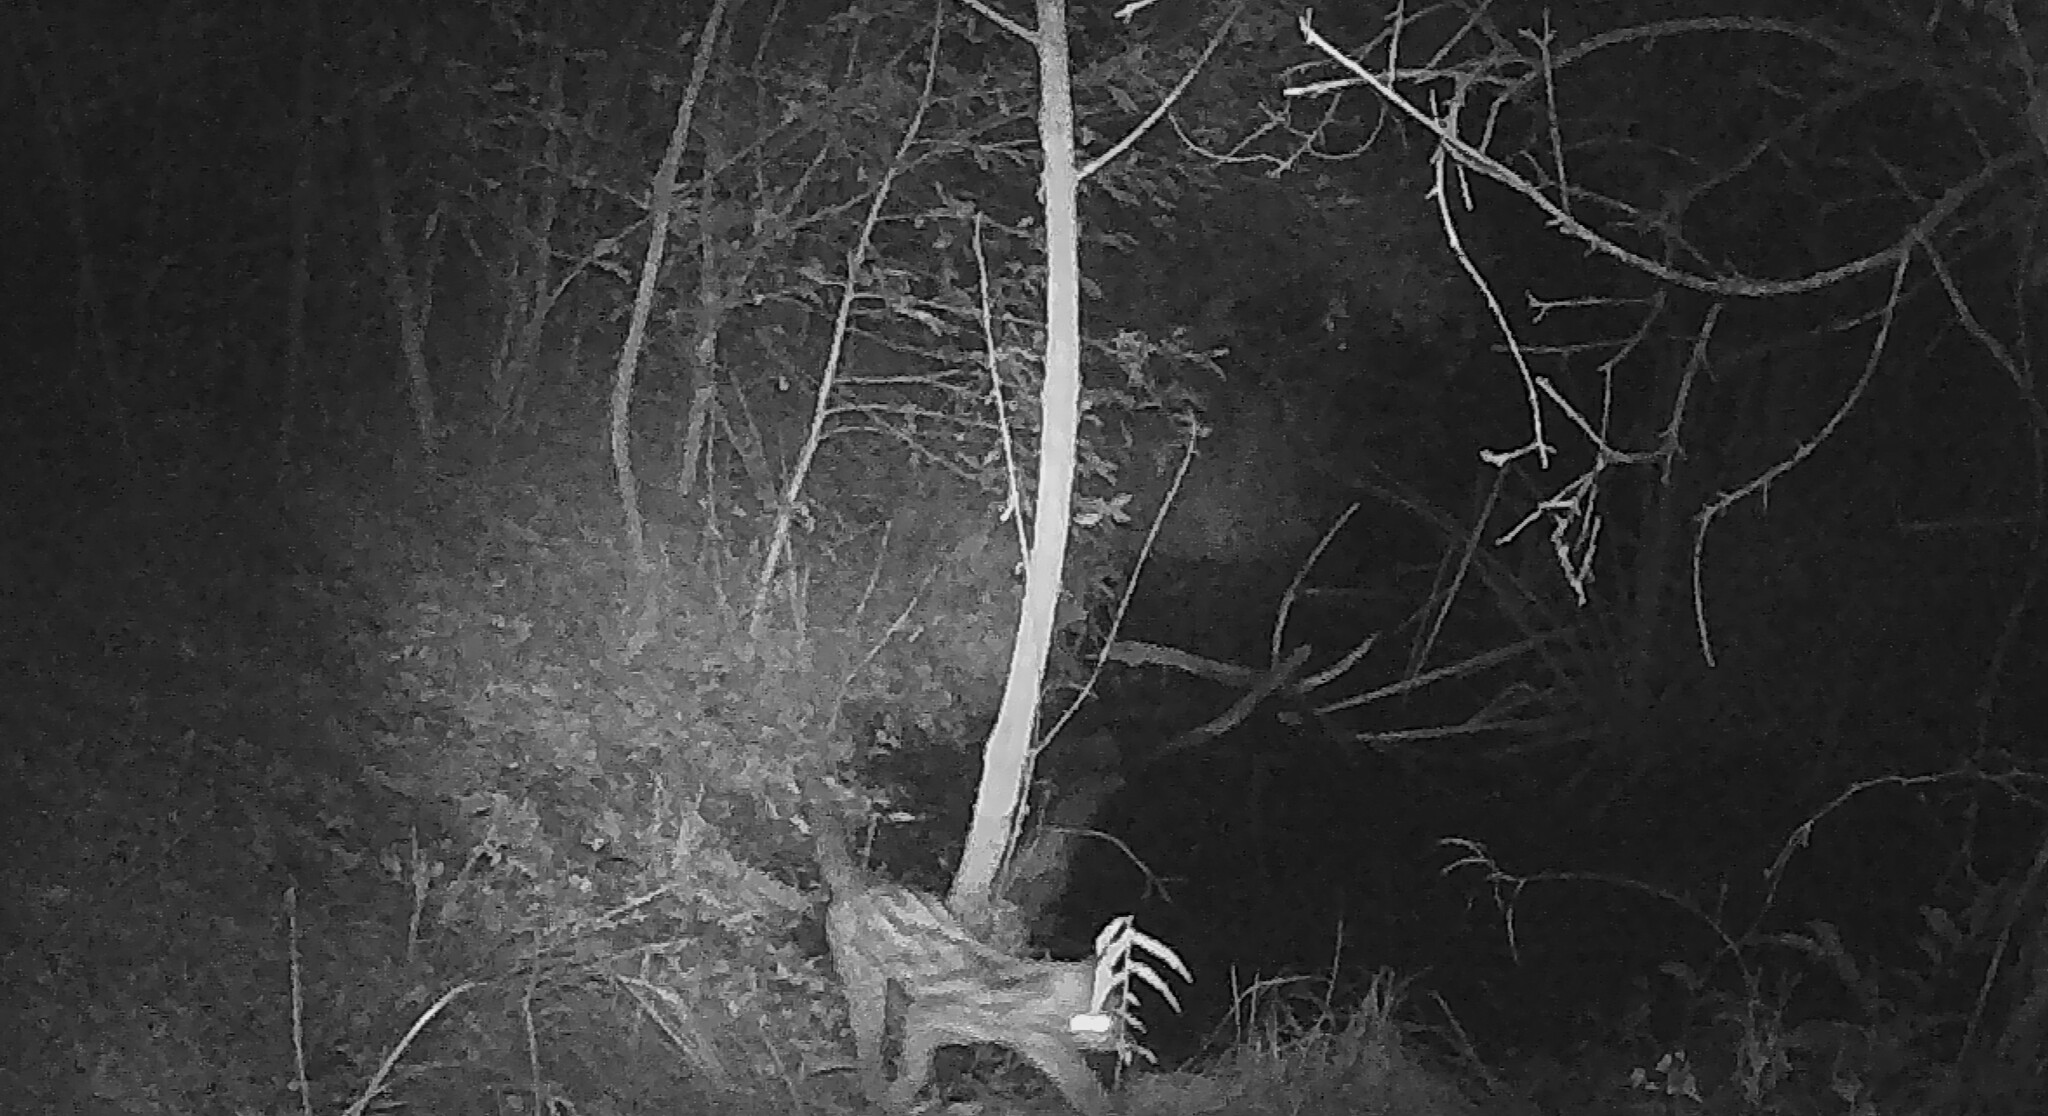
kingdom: Animalia
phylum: Chordata
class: Mammalia
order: Carnivora
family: Felidae
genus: Leopardus
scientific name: Leopardus wiedii
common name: Margay
